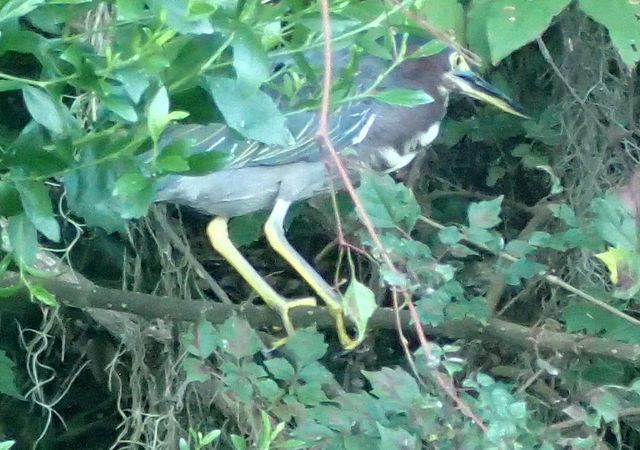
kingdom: Animalia
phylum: Chordata
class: Aves
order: Pelecaniformes
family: Ardeidae
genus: Butorides
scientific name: Butorides virescens
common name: Green heron
